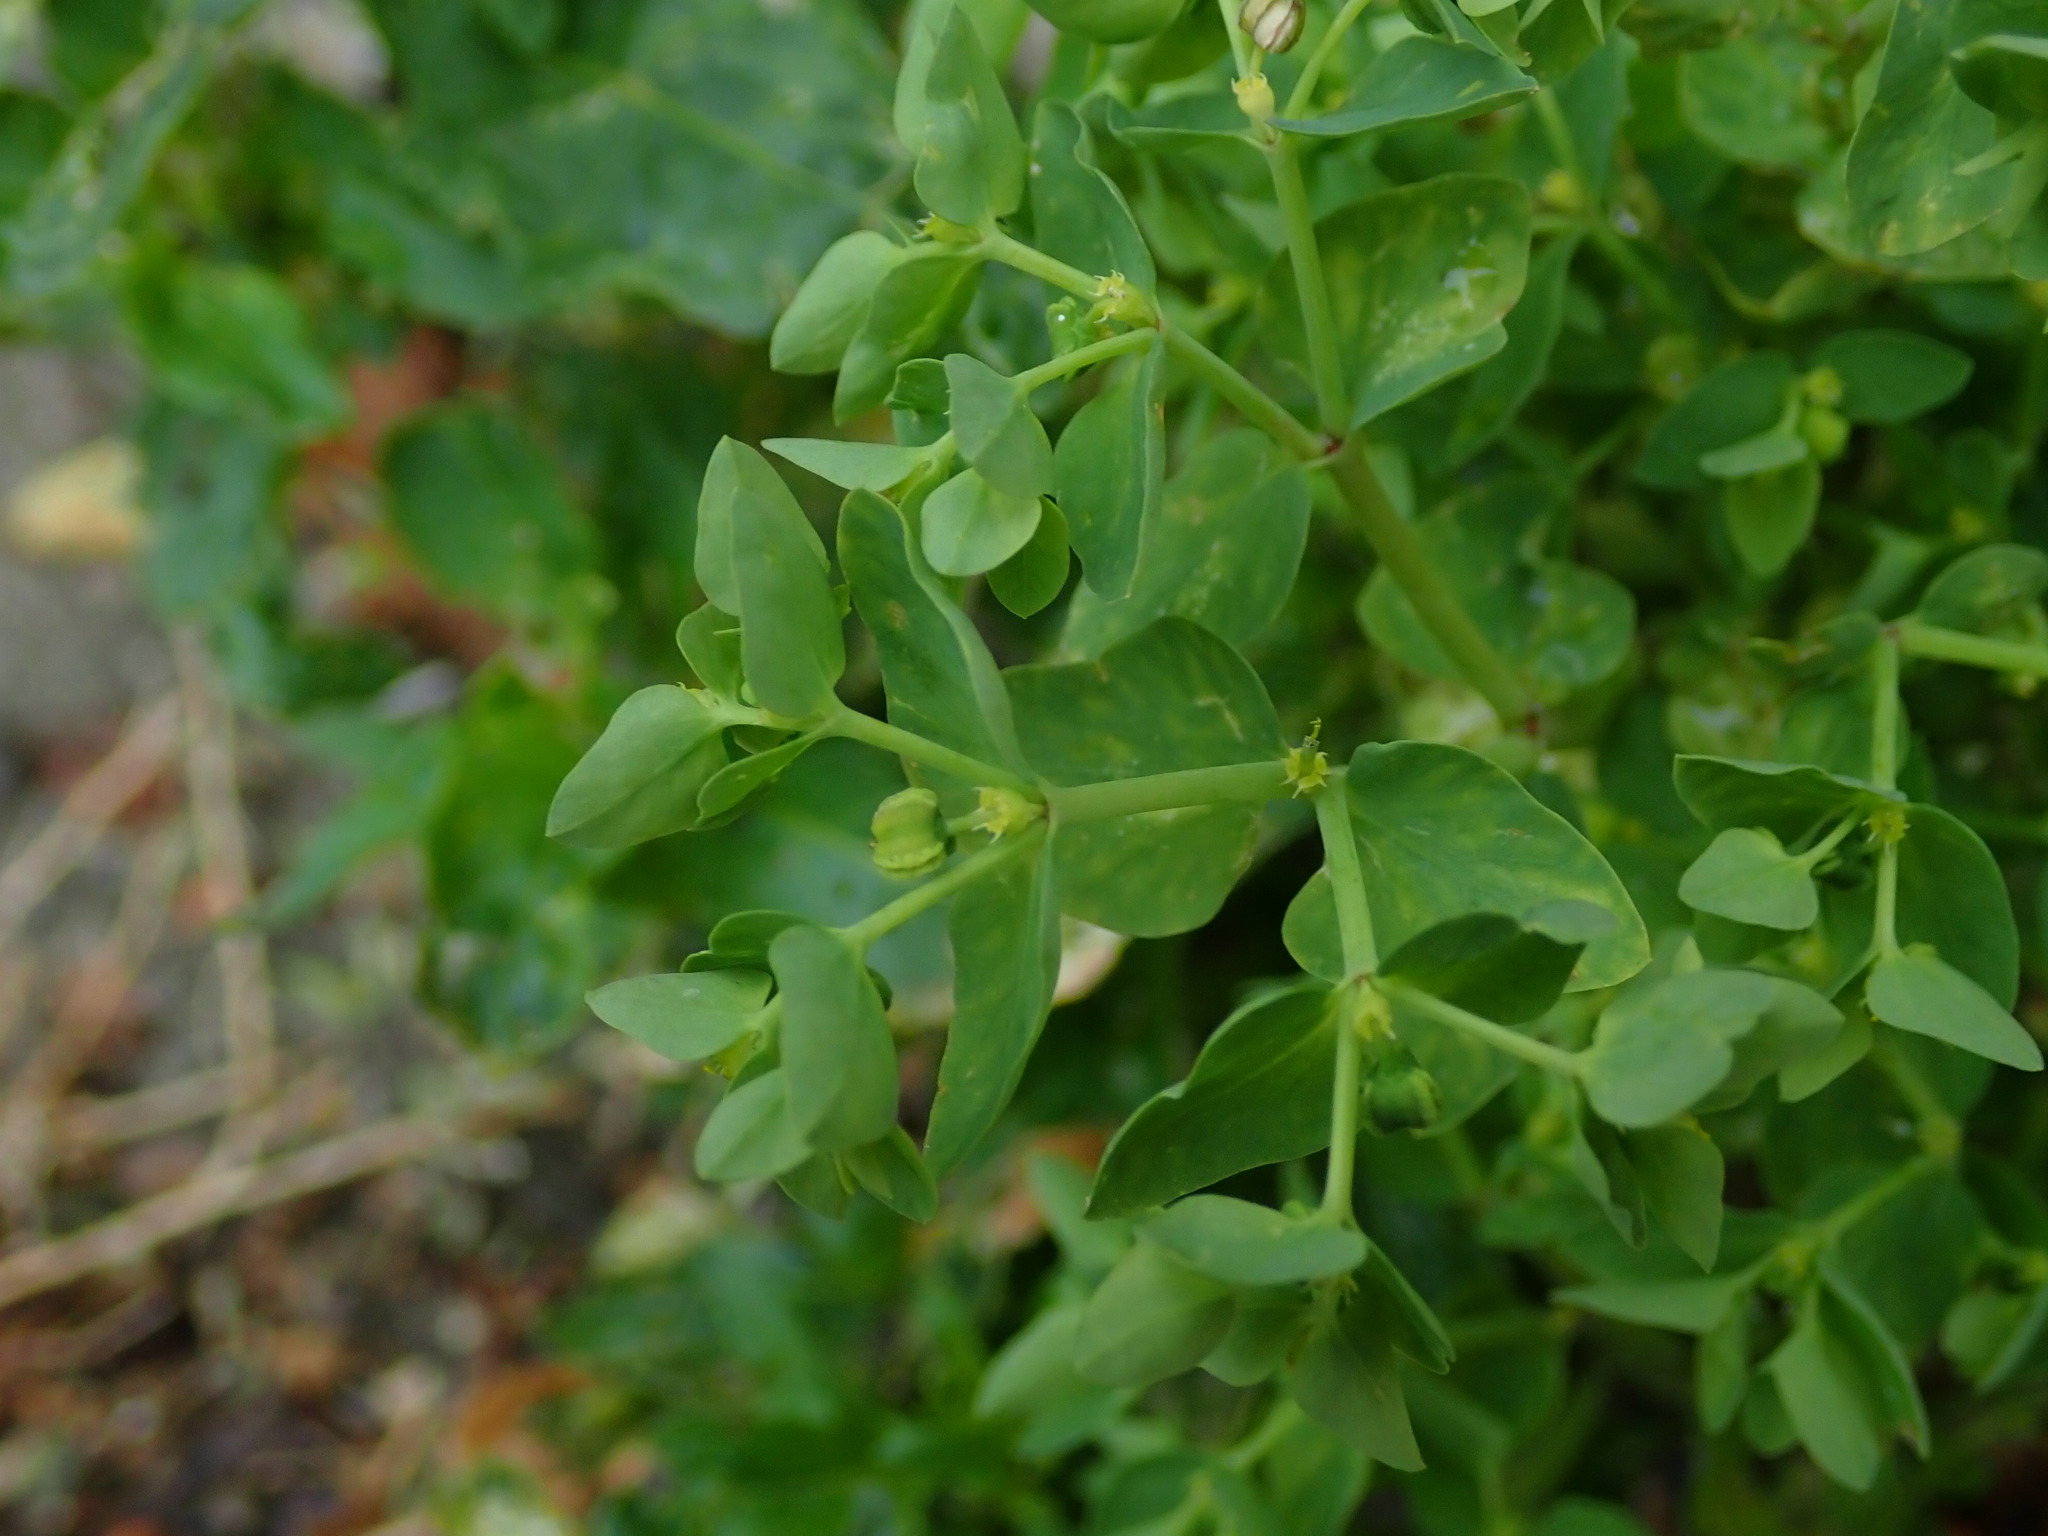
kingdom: Plantae
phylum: Tracheophyta
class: Magnoliopsida
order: Malpighiales
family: Euphorbiaceae
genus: Euphorbia
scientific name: Euphorbia peplus
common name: Petty spurge
